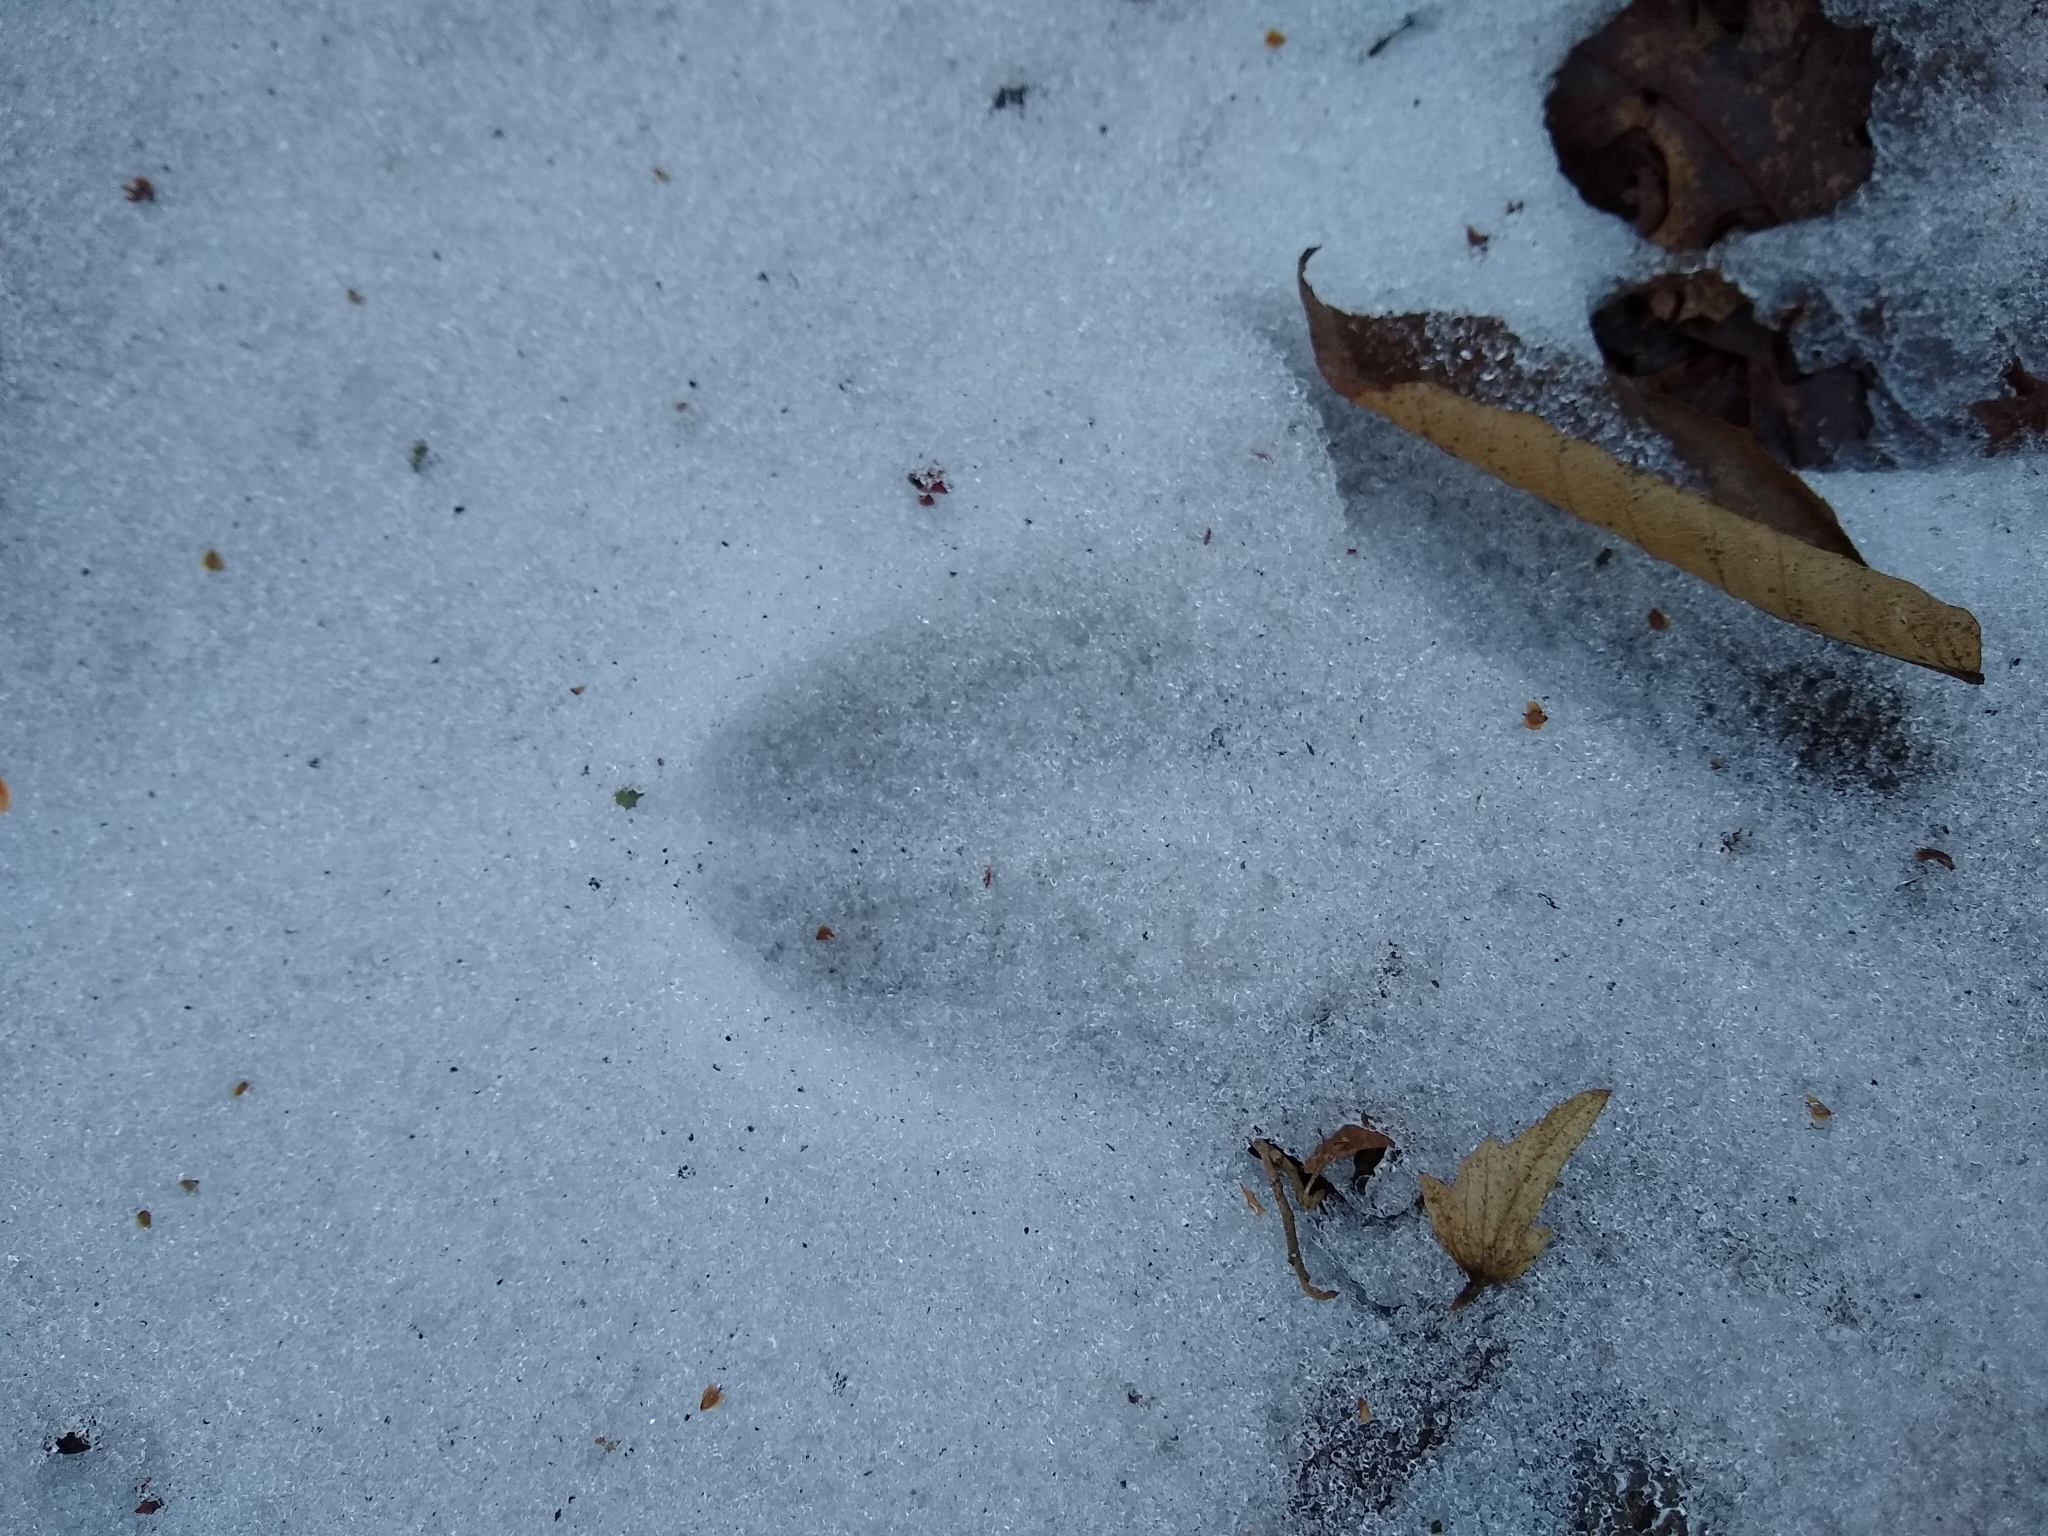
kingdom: Animalia
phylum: Chordata
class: Mammalia
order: Artiodactyla
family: Cervidae
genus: Odocoileus
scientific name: Odocoileus virginianus
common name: White-tailed deer
